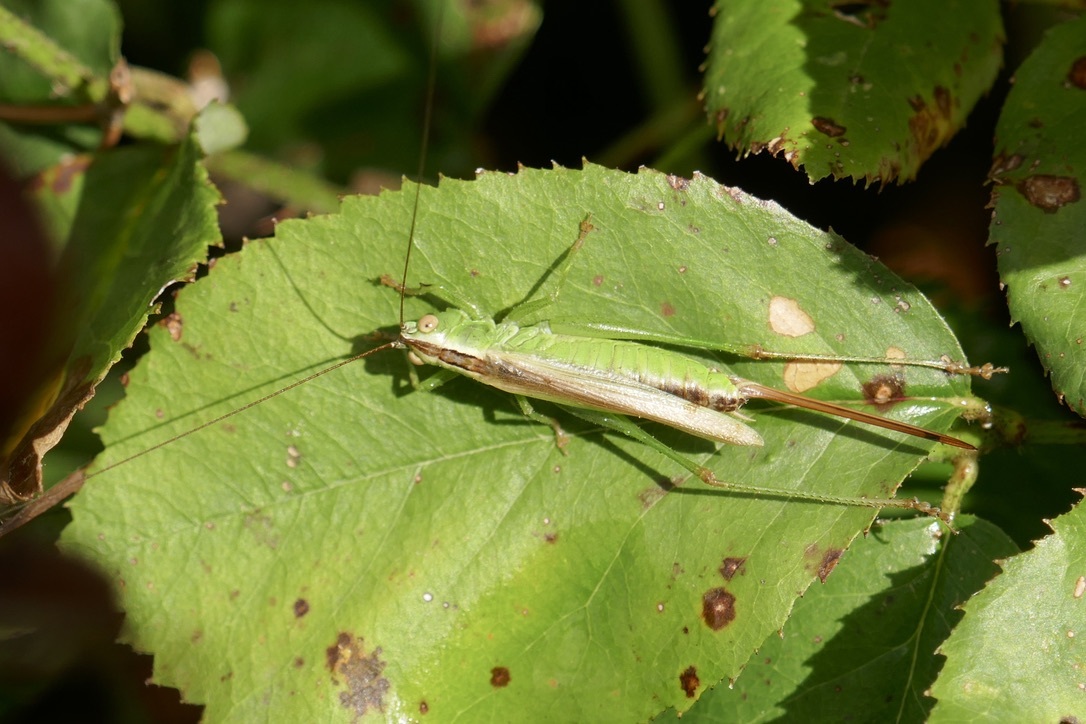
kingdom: Animalia
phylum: Arthropoda
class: Insecta
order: Orthoptera
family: Tettigoniidae
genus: Conocephalus
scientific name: Conocephalus fuscus
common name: Long-winged conehead
